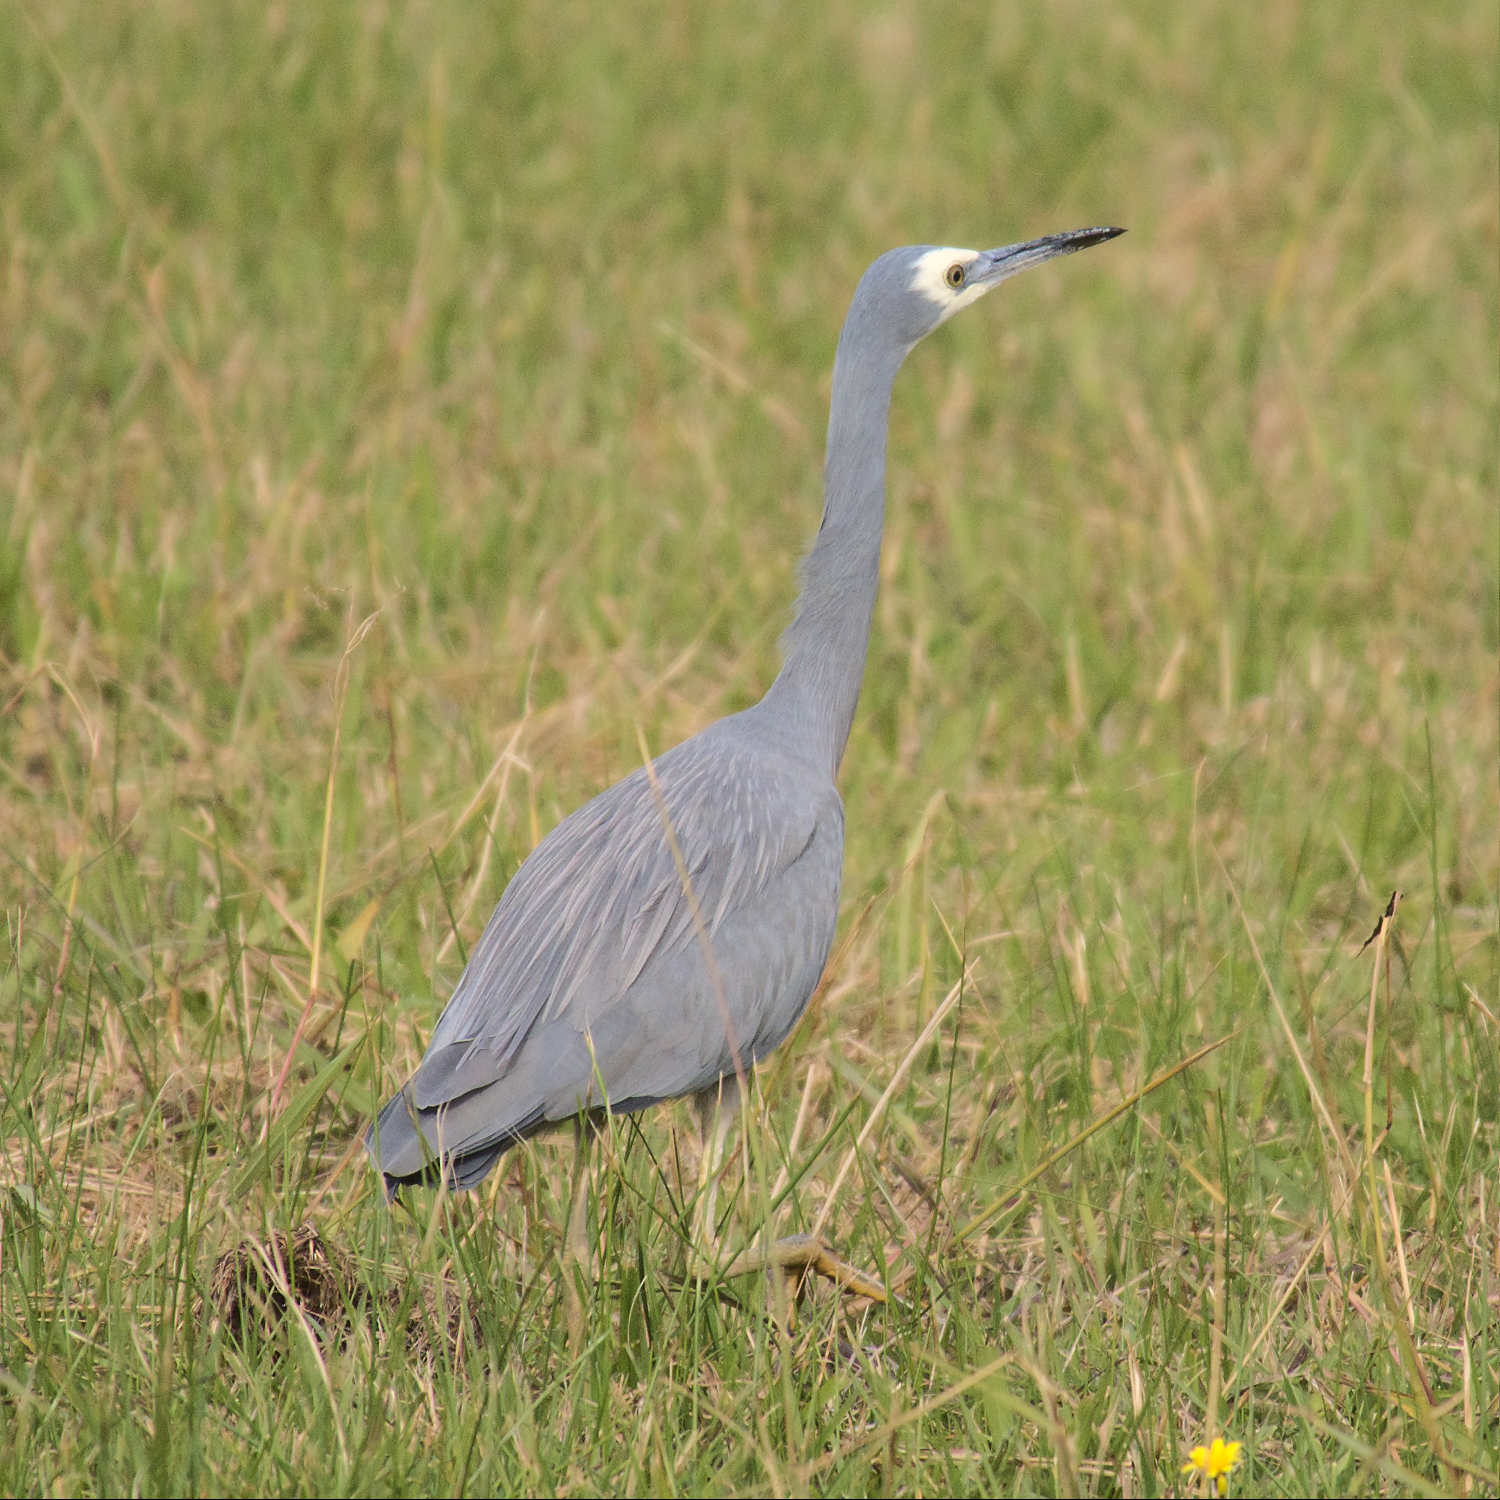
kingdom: Animalia
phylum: Chordata
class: Aves
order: Pelecaniformes
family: Ardeidae
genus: Egretta
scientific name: Egretta novaehollandiae
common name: White-faced heron
